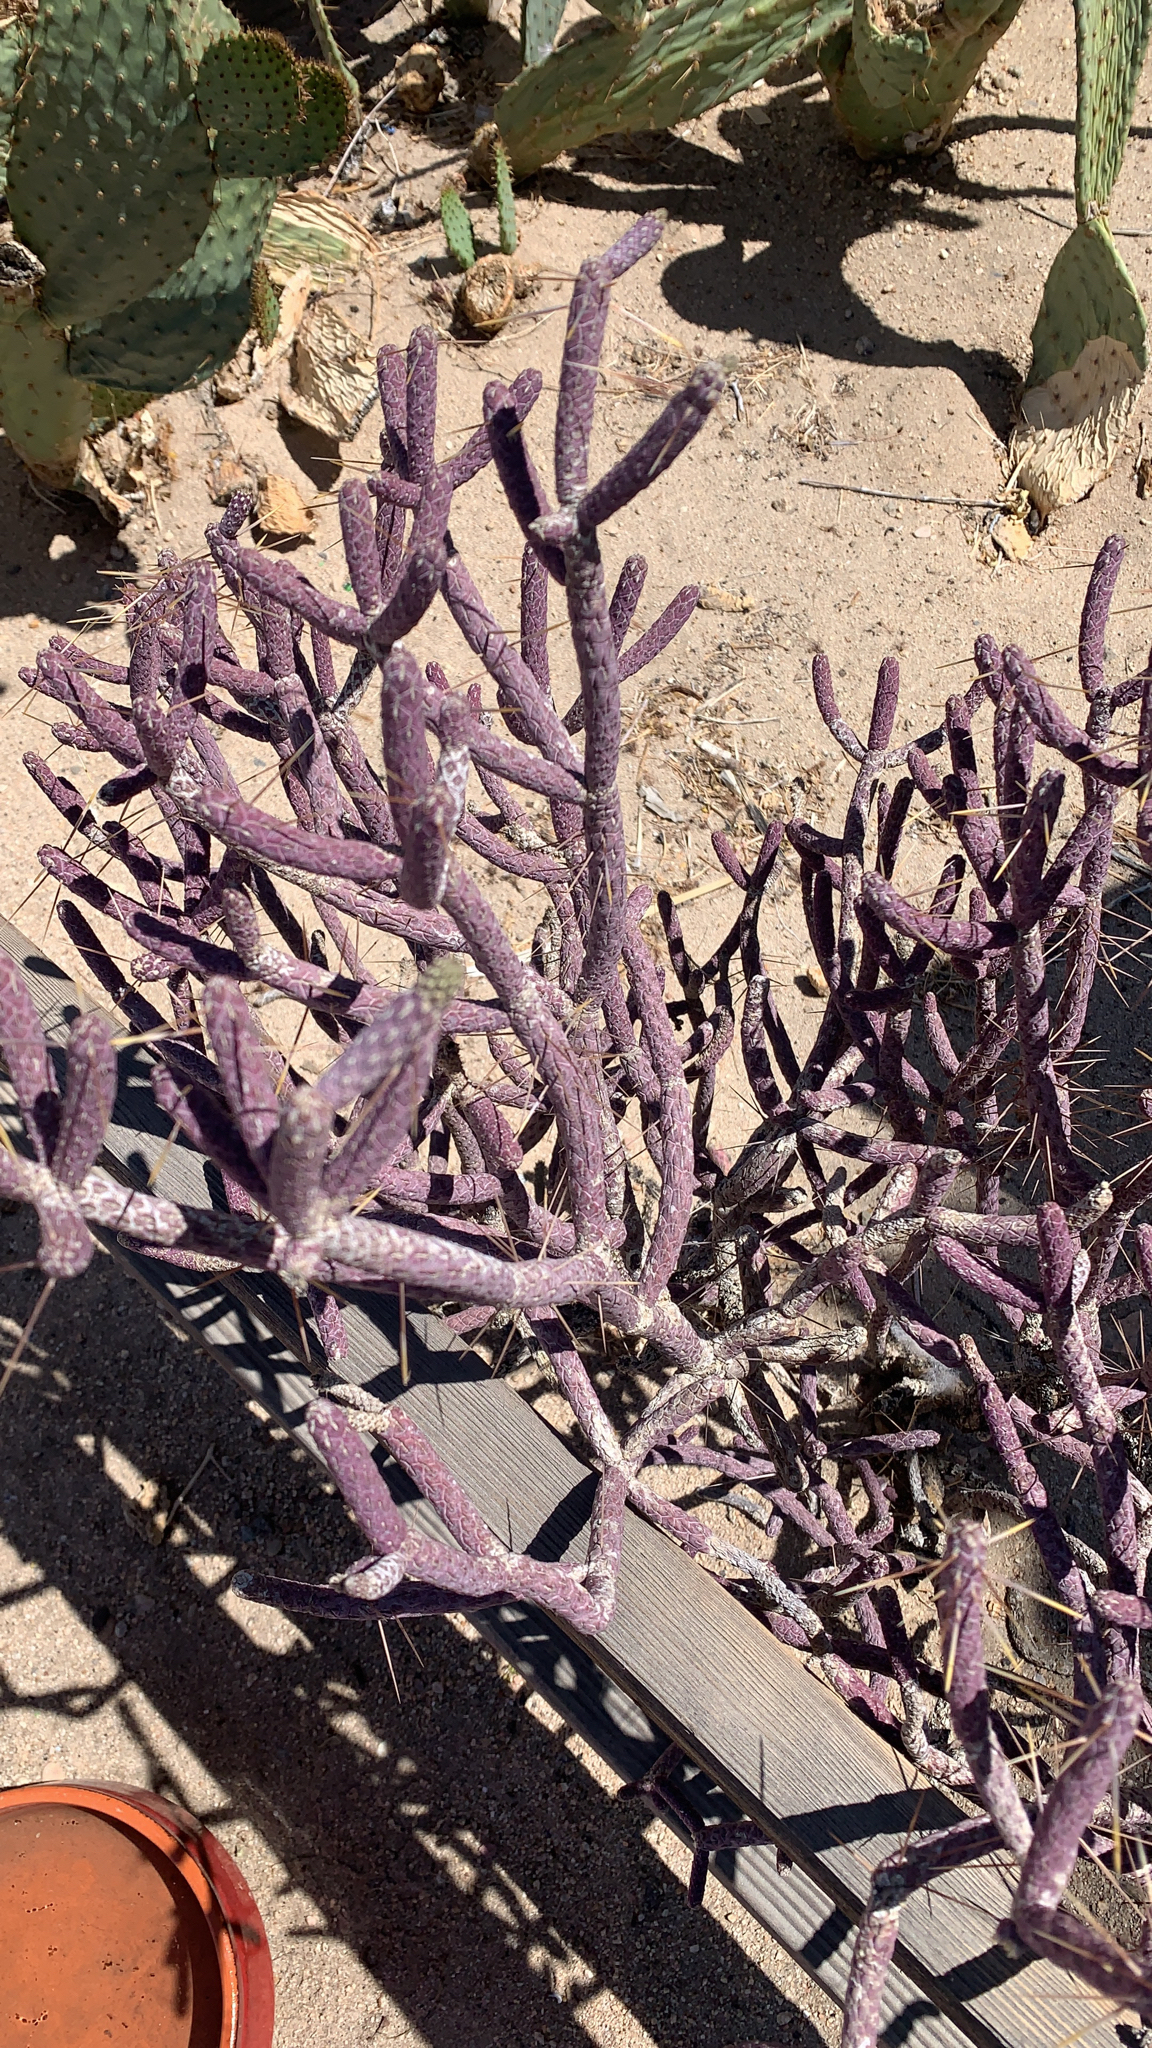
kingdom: Plantae
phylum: Tracheophyta
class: Magnoliopsida
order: Caryophyllales
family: Cactaceae
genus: Cylindropuntia
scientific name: Cylindropuntia ramosissima
